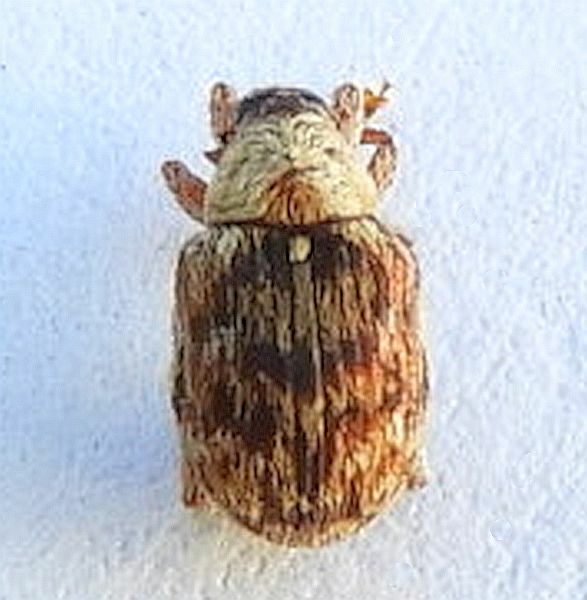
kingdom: Animalia
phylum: Arthropoda
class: Insecta
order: Coleoptera
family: Curculionidae
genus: Piazorhinus
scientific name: Piazorhinus pictus
